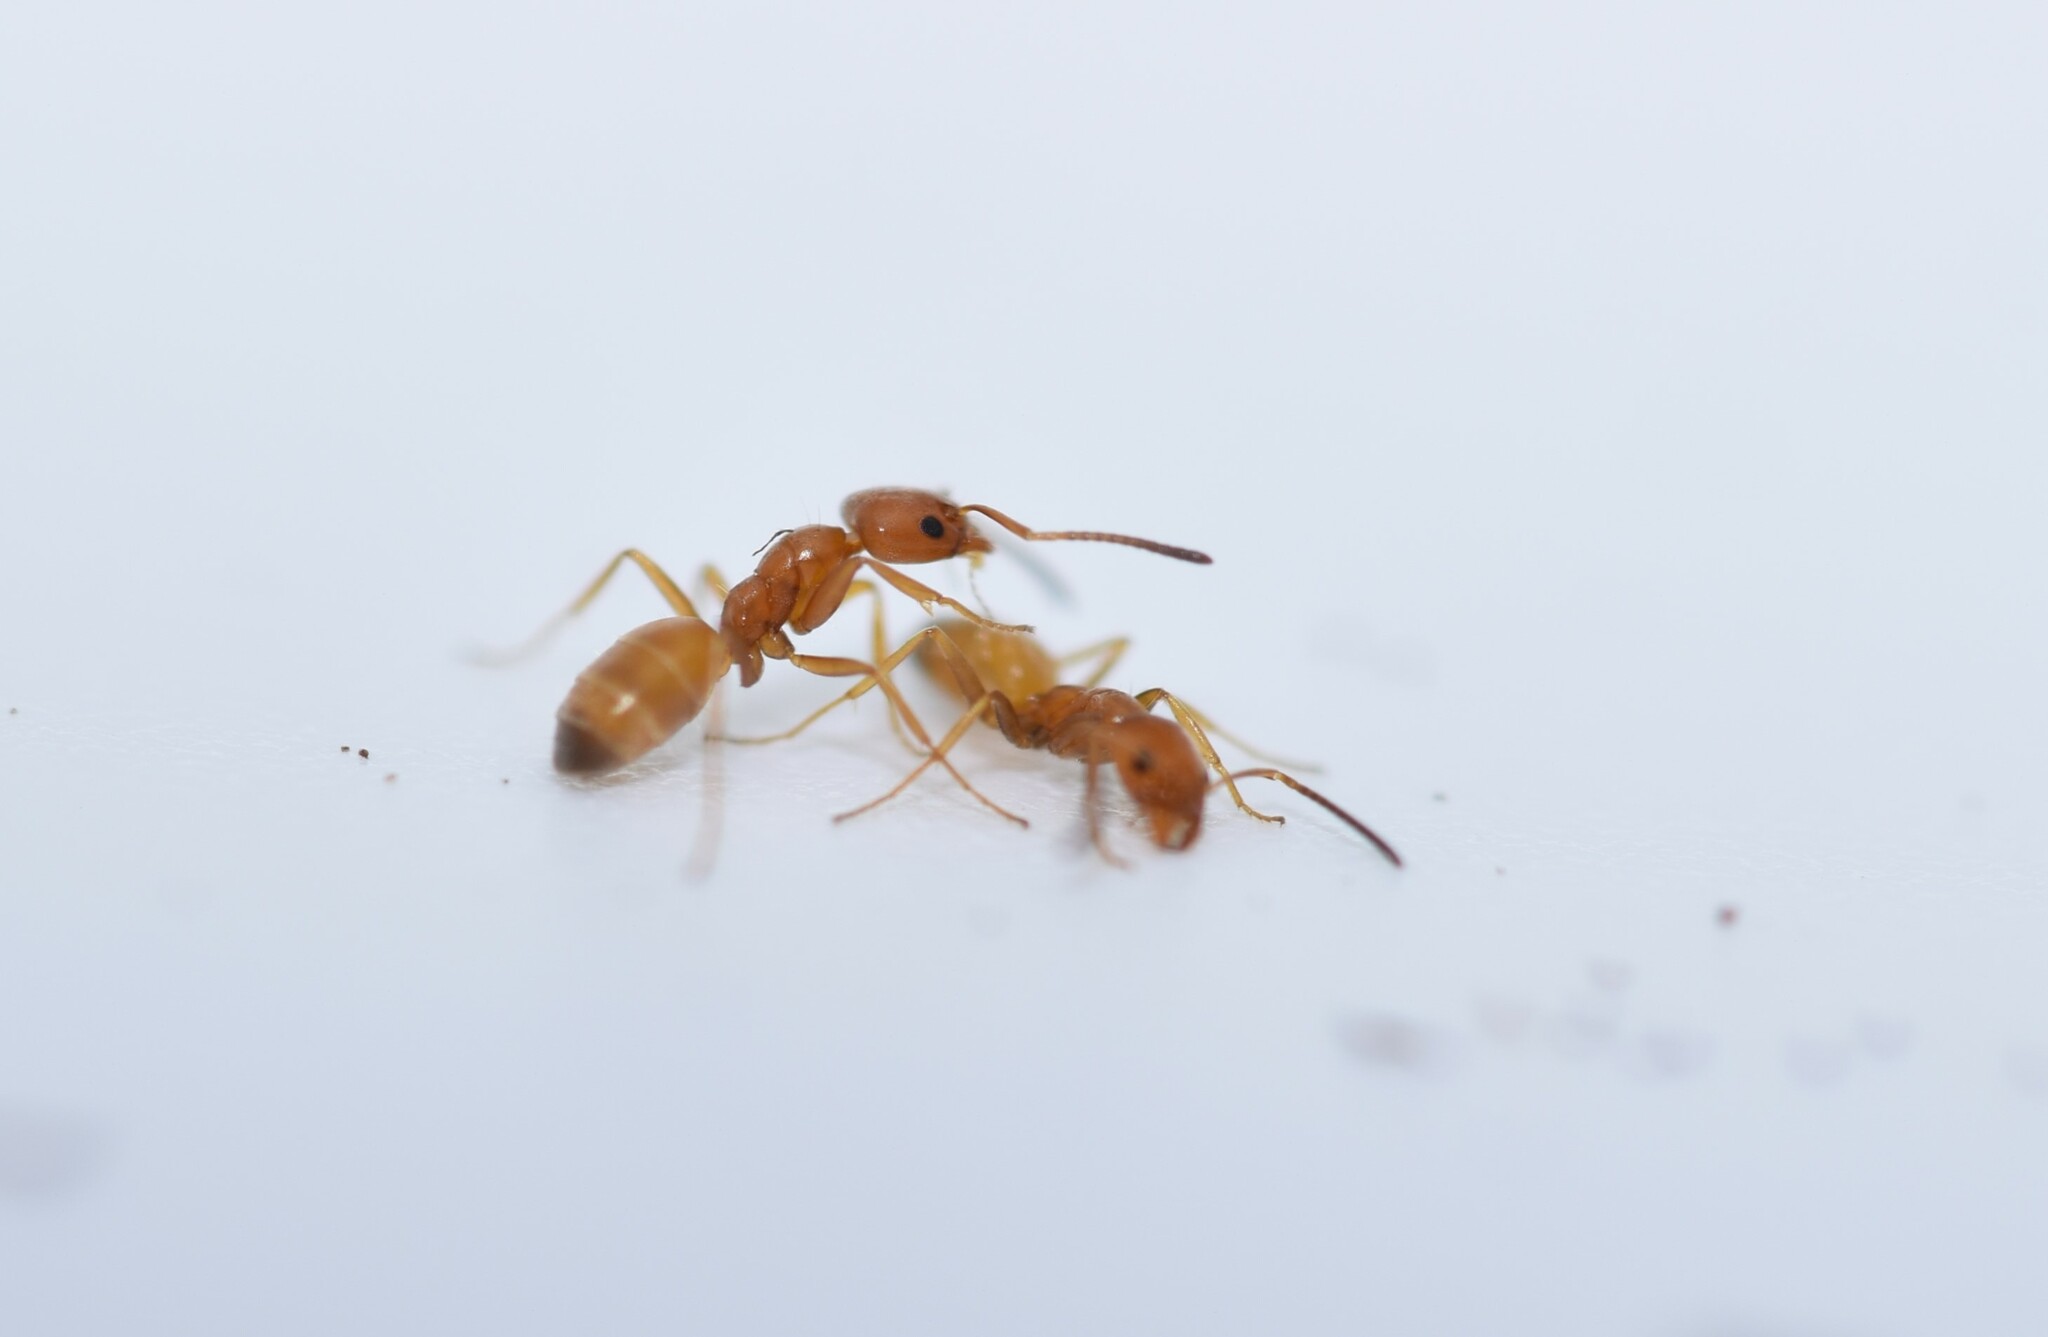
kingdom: Animalia
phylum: Arthropoda
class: Insecta
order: Hymenoptera
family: Formicidae
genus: Forelius
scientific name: Forelius pruinosus
